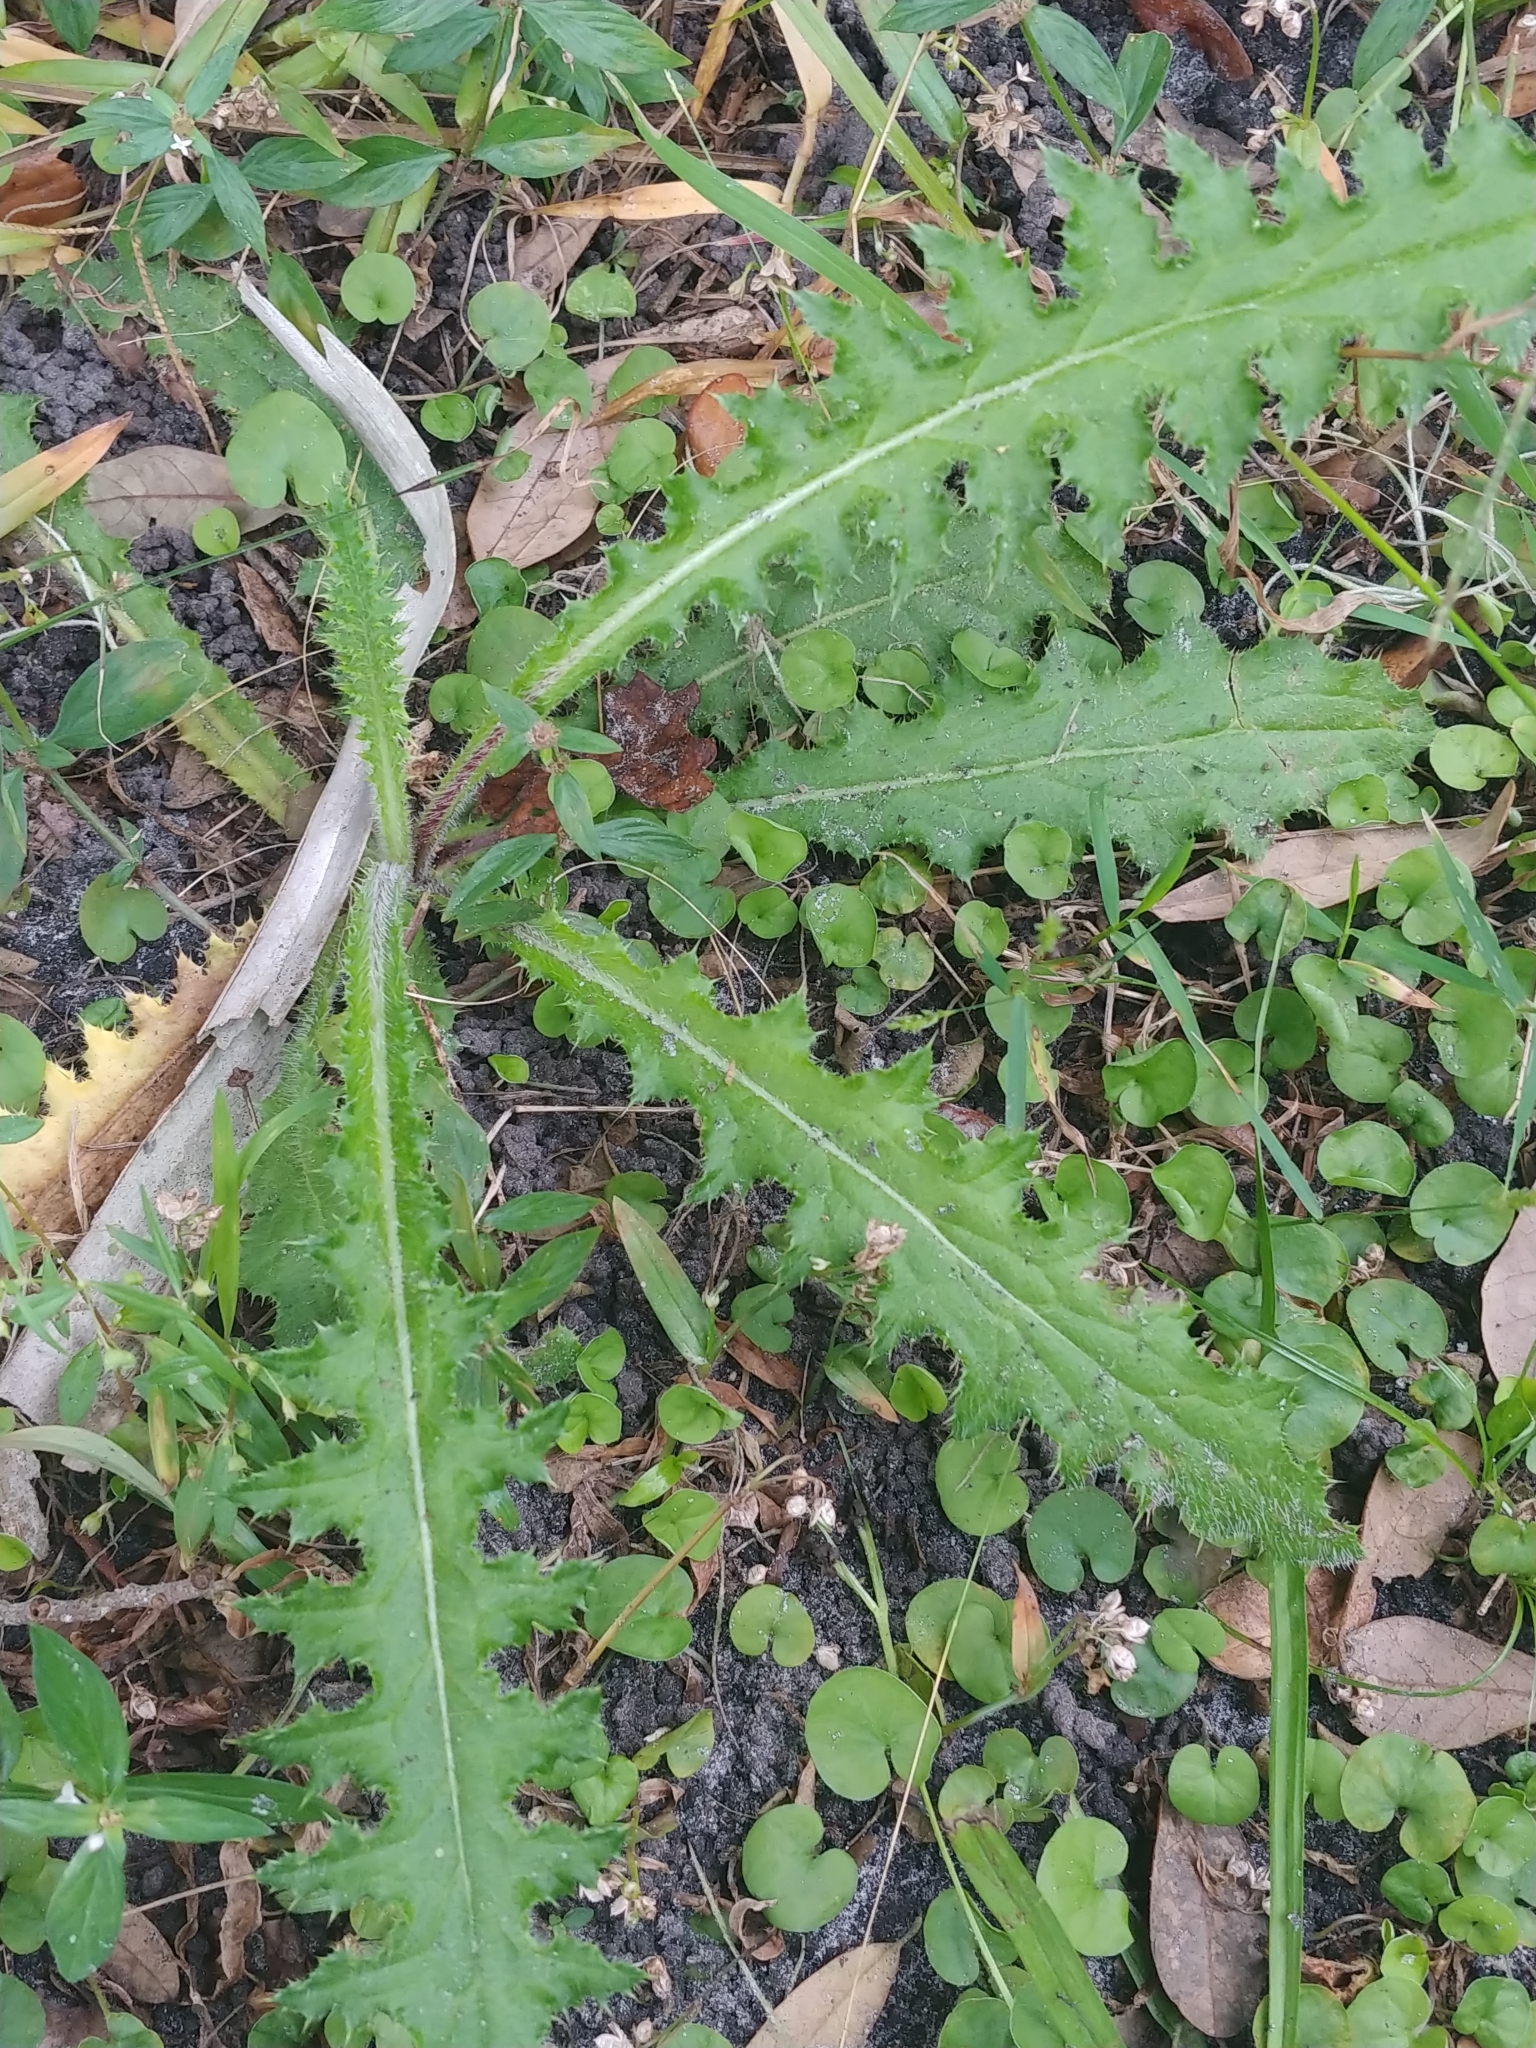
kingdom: Plantae
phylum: Tracheophyta
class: Magnoliopsida
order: Asterales
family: Asteraceae
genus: Cirsium
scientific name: Cirsium horridulum
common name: Bristly thistle
